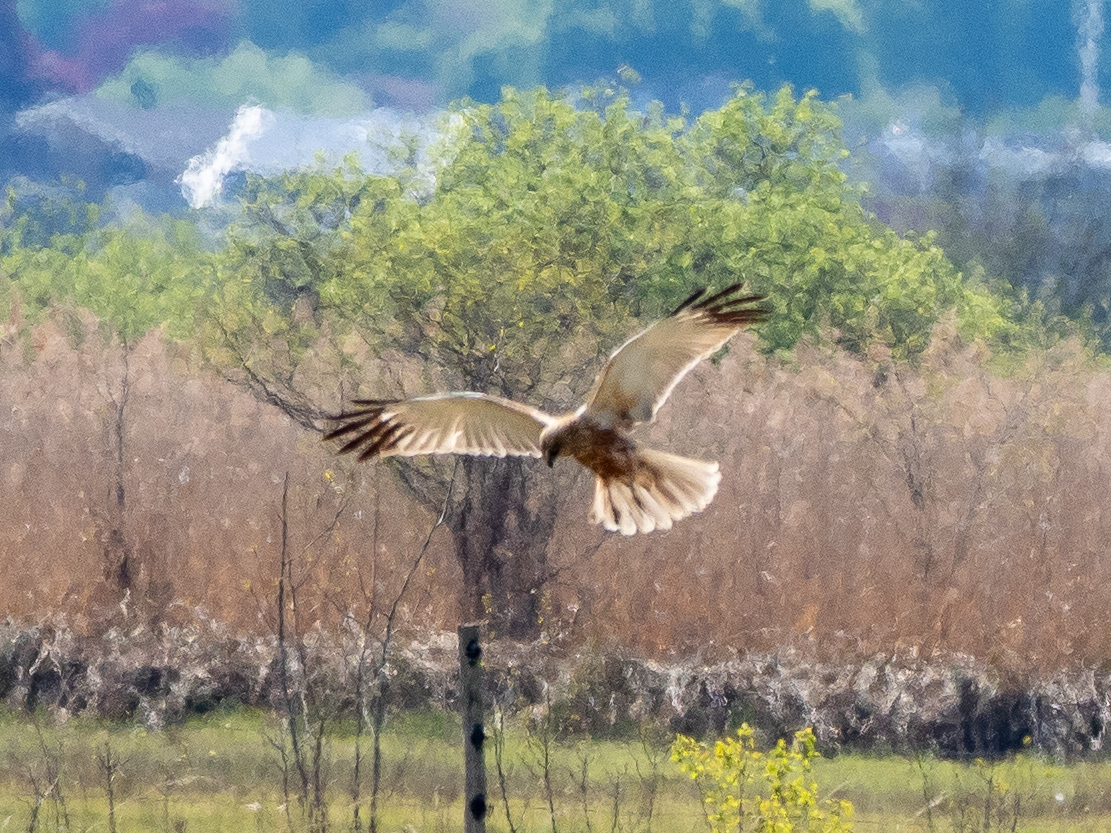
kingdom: Animalia
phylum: Chordata
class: Aves
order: Accipitriformes
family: Accipitridae
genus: Circus
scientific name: Circus aeruginosus
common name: Western marsh harrier
